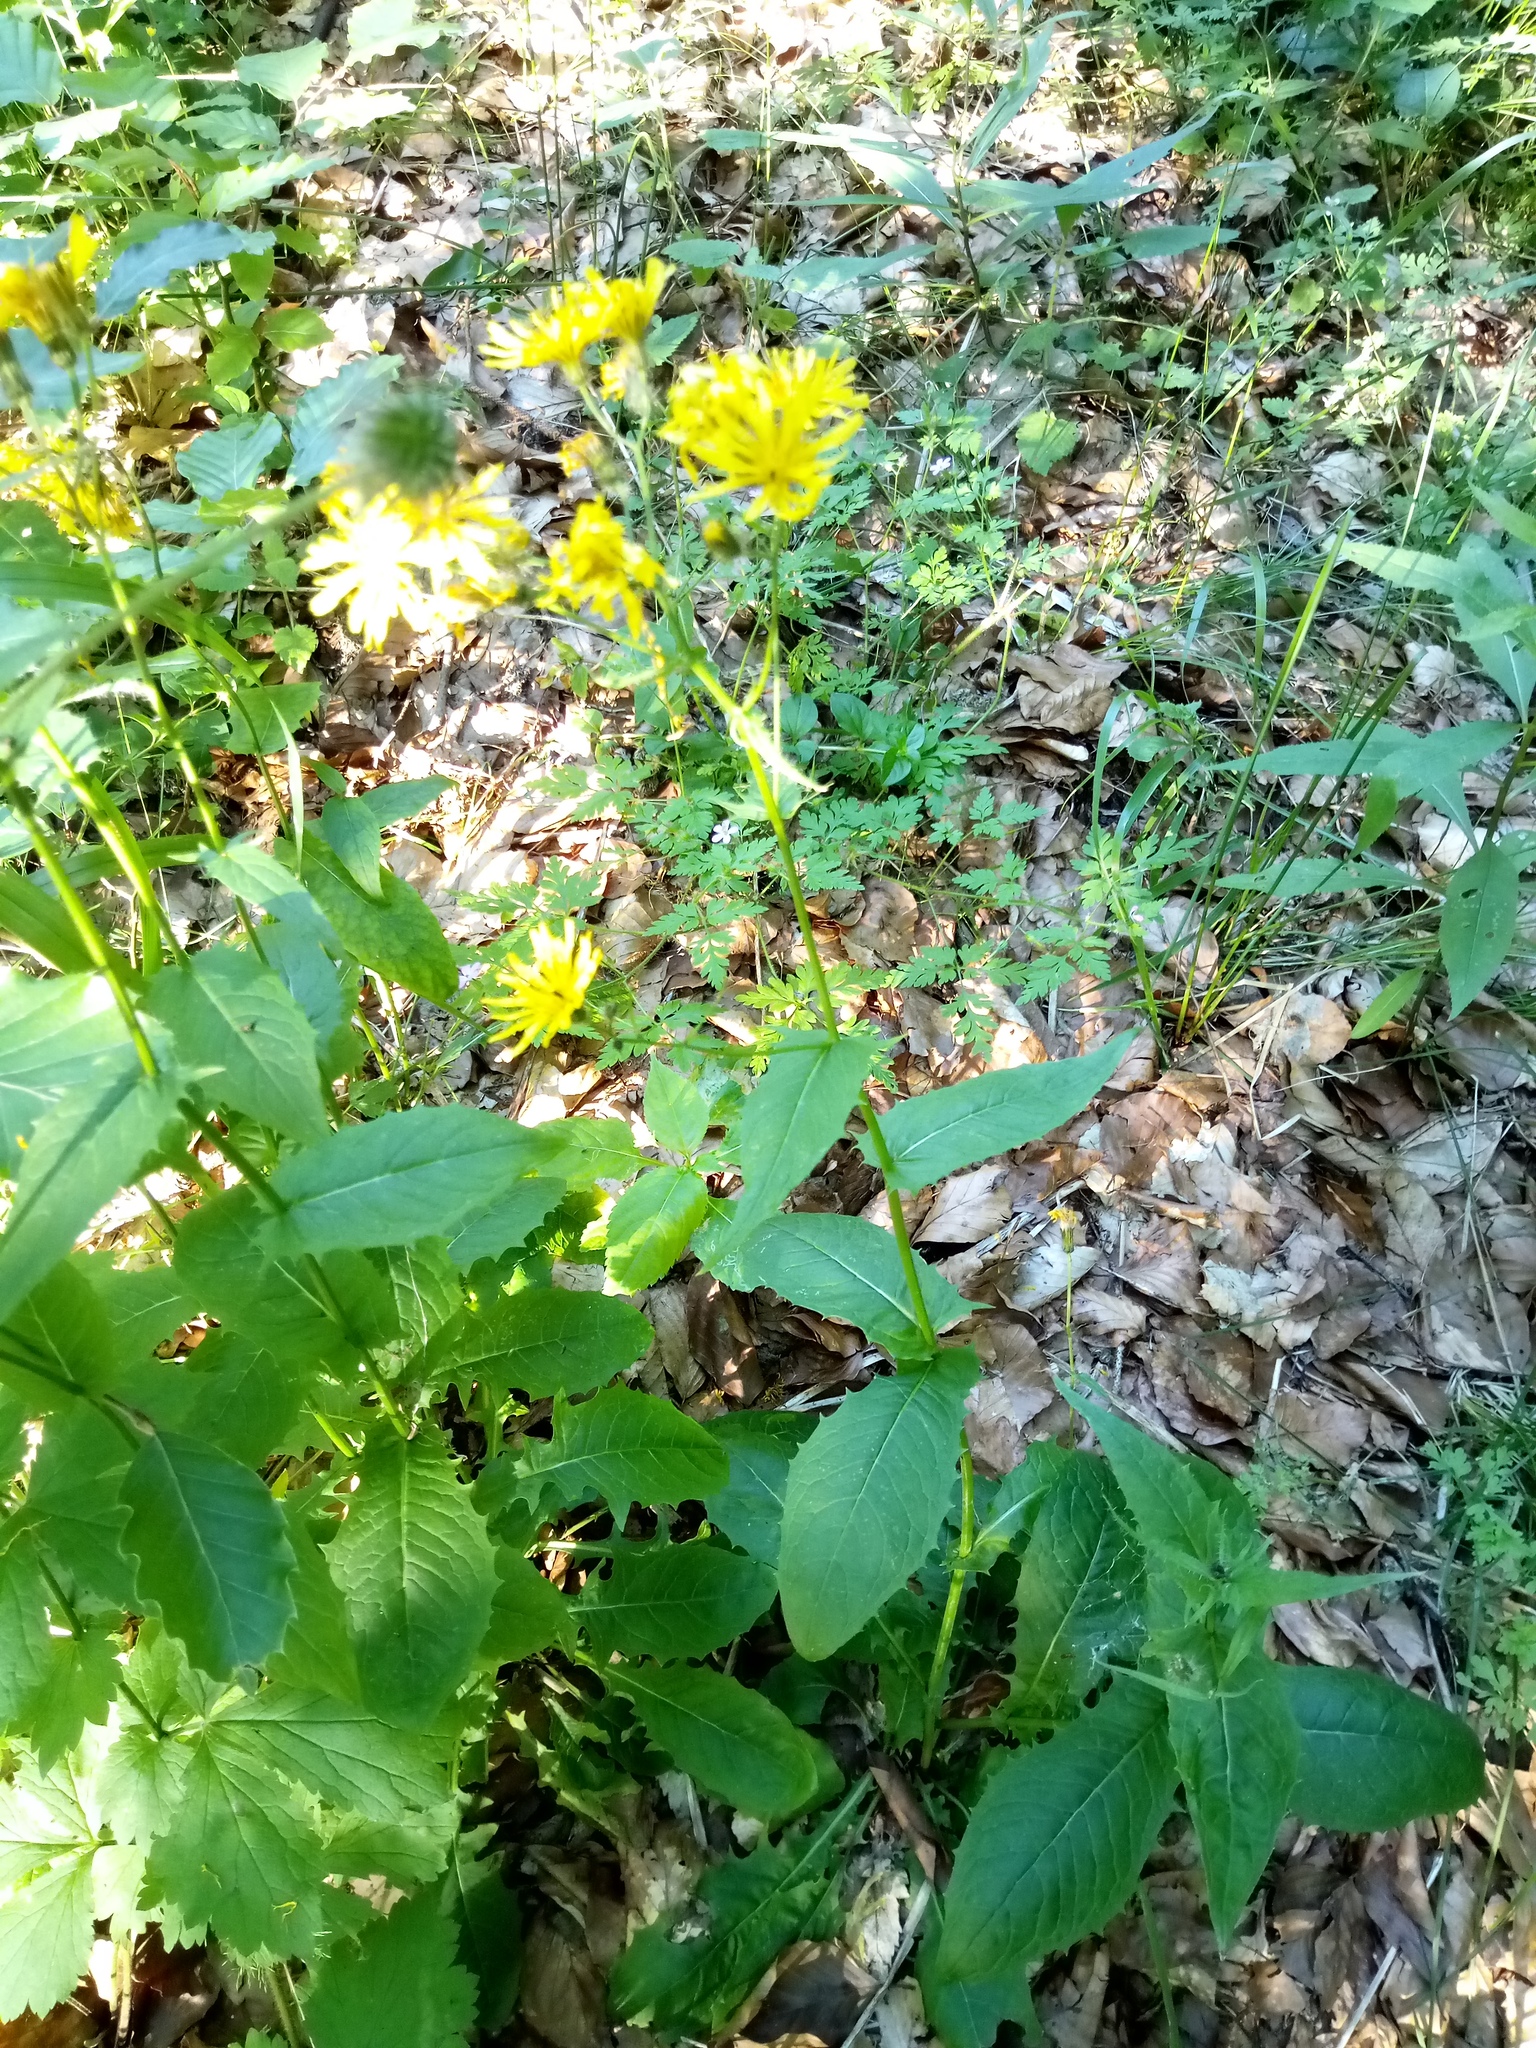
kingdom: Plantae
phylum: Tracheophyta
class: Magnoliopsida
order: Asterales
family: Asteraceae
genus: Crepis
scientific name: Crepis paludosa
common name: Marsh hawk's-beard
